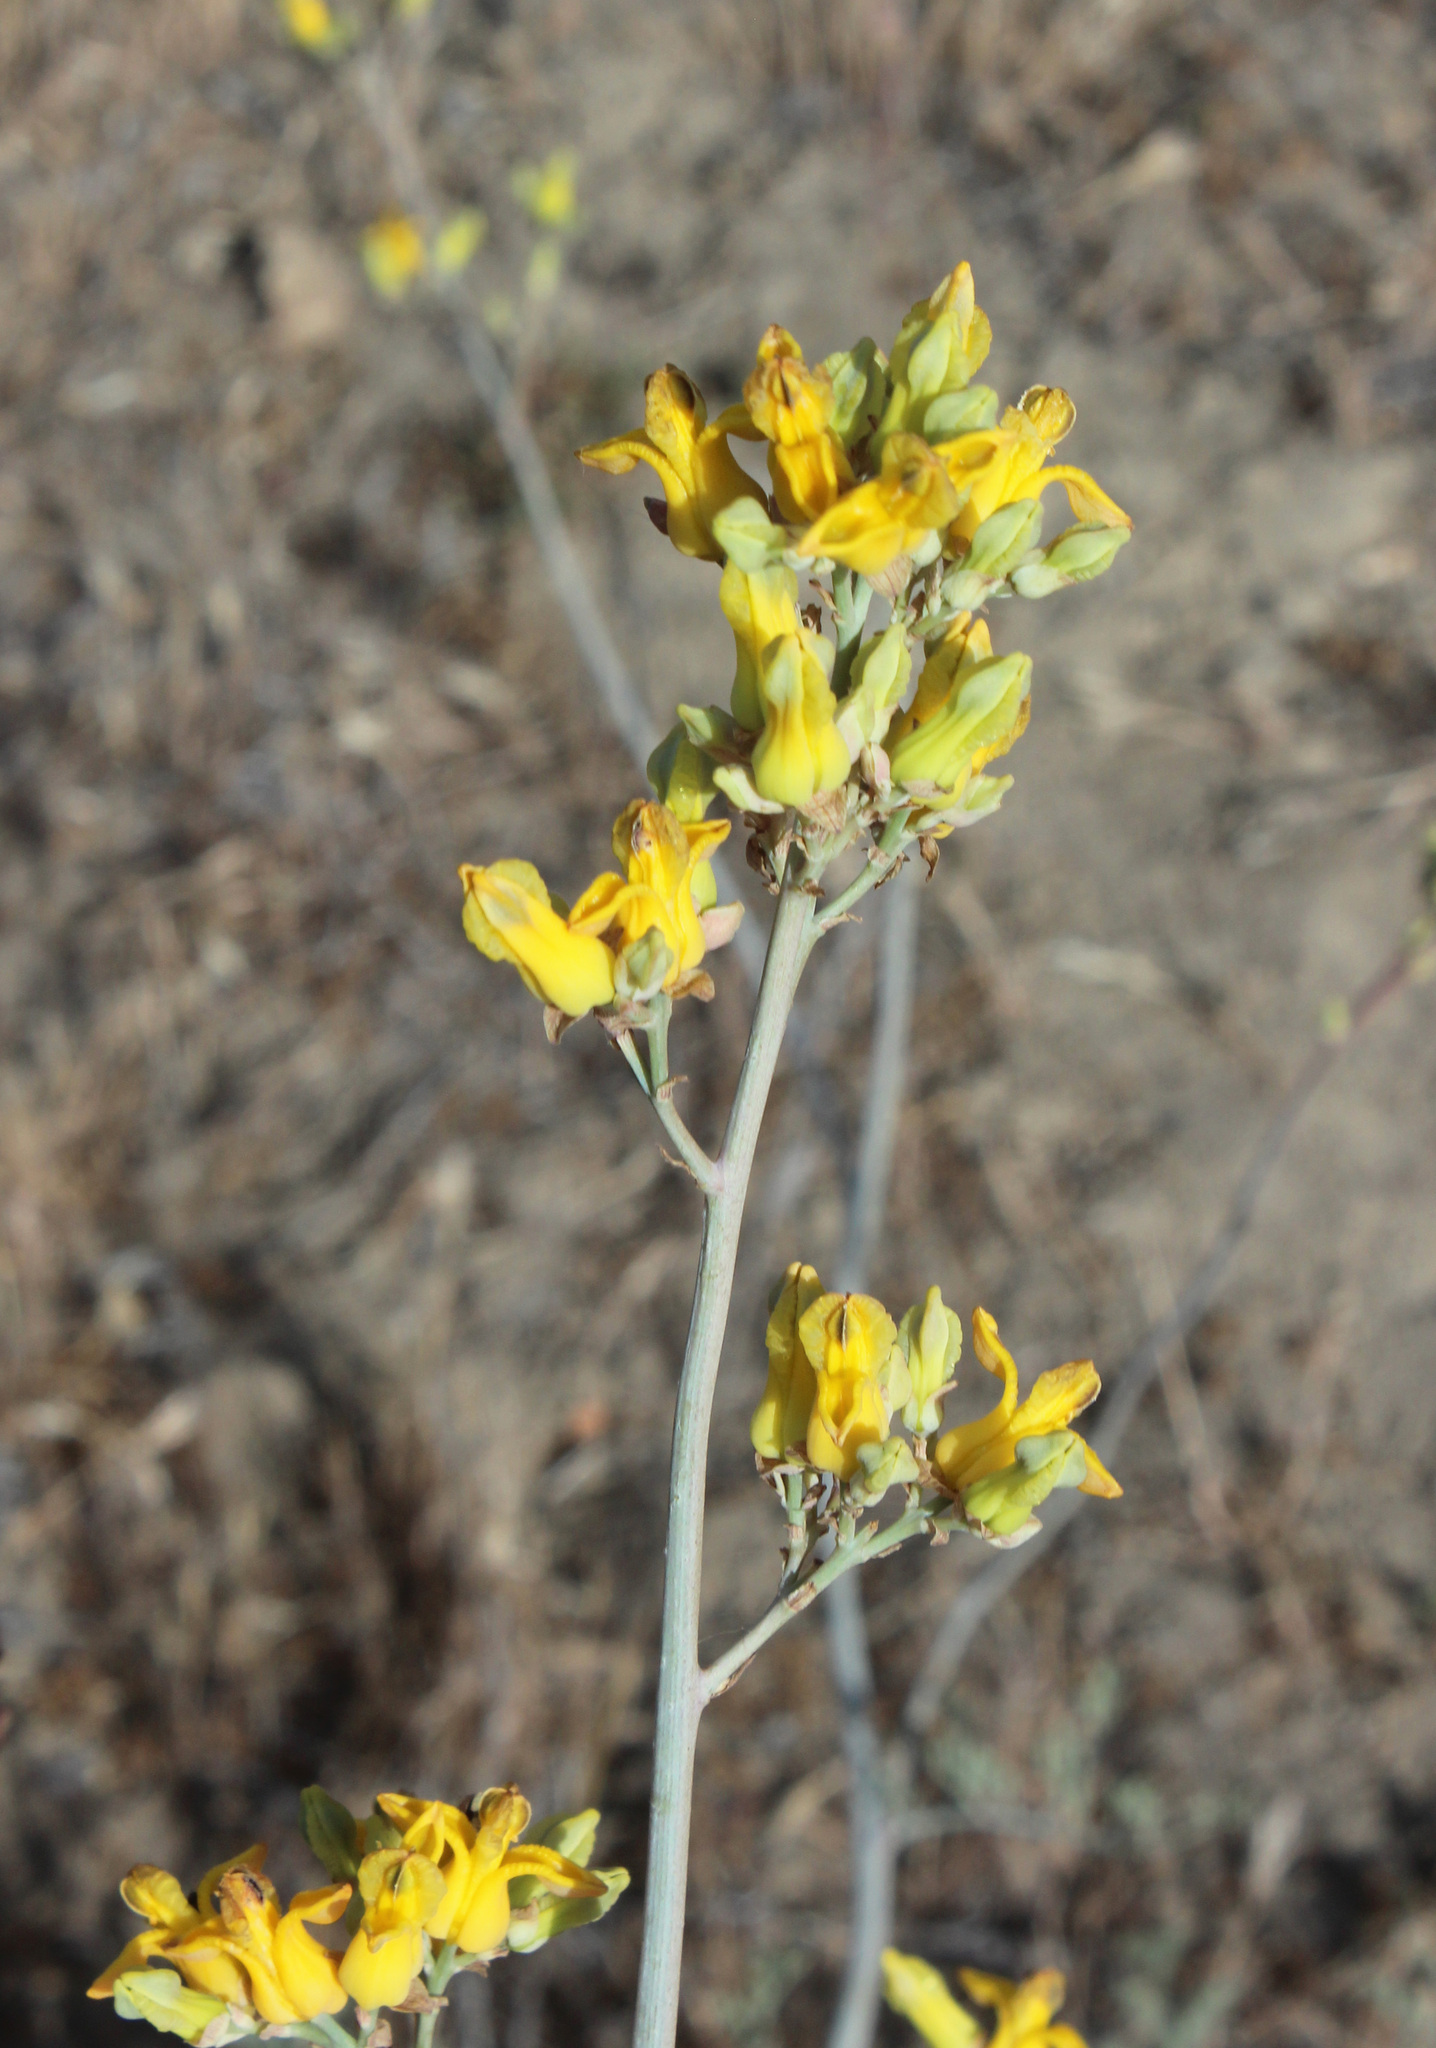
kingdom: Plantae
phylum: Tracheophyta
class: Magnoliopsida
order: Ranunculales
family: Papaveraceae
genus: Ehrendorferia
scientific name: Ehrendorferia chrysantha
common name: Golden eardrops
